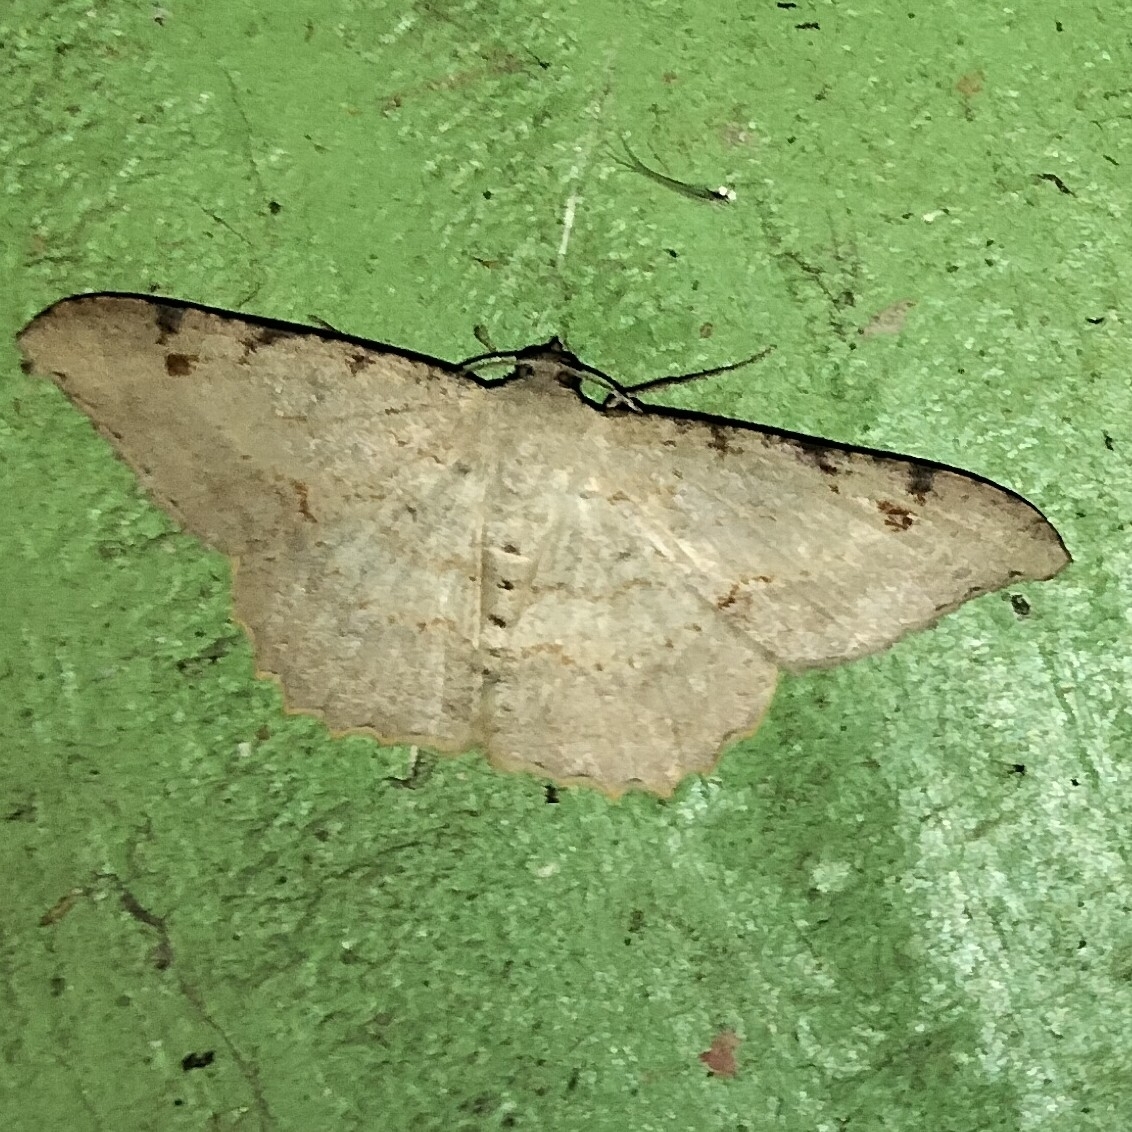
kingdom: Animalia
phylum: Arthropoda
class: Insecta
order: Lepidoptera
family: Geometridae
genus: Luxiaria
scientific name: Luxiaria hypaphanes
